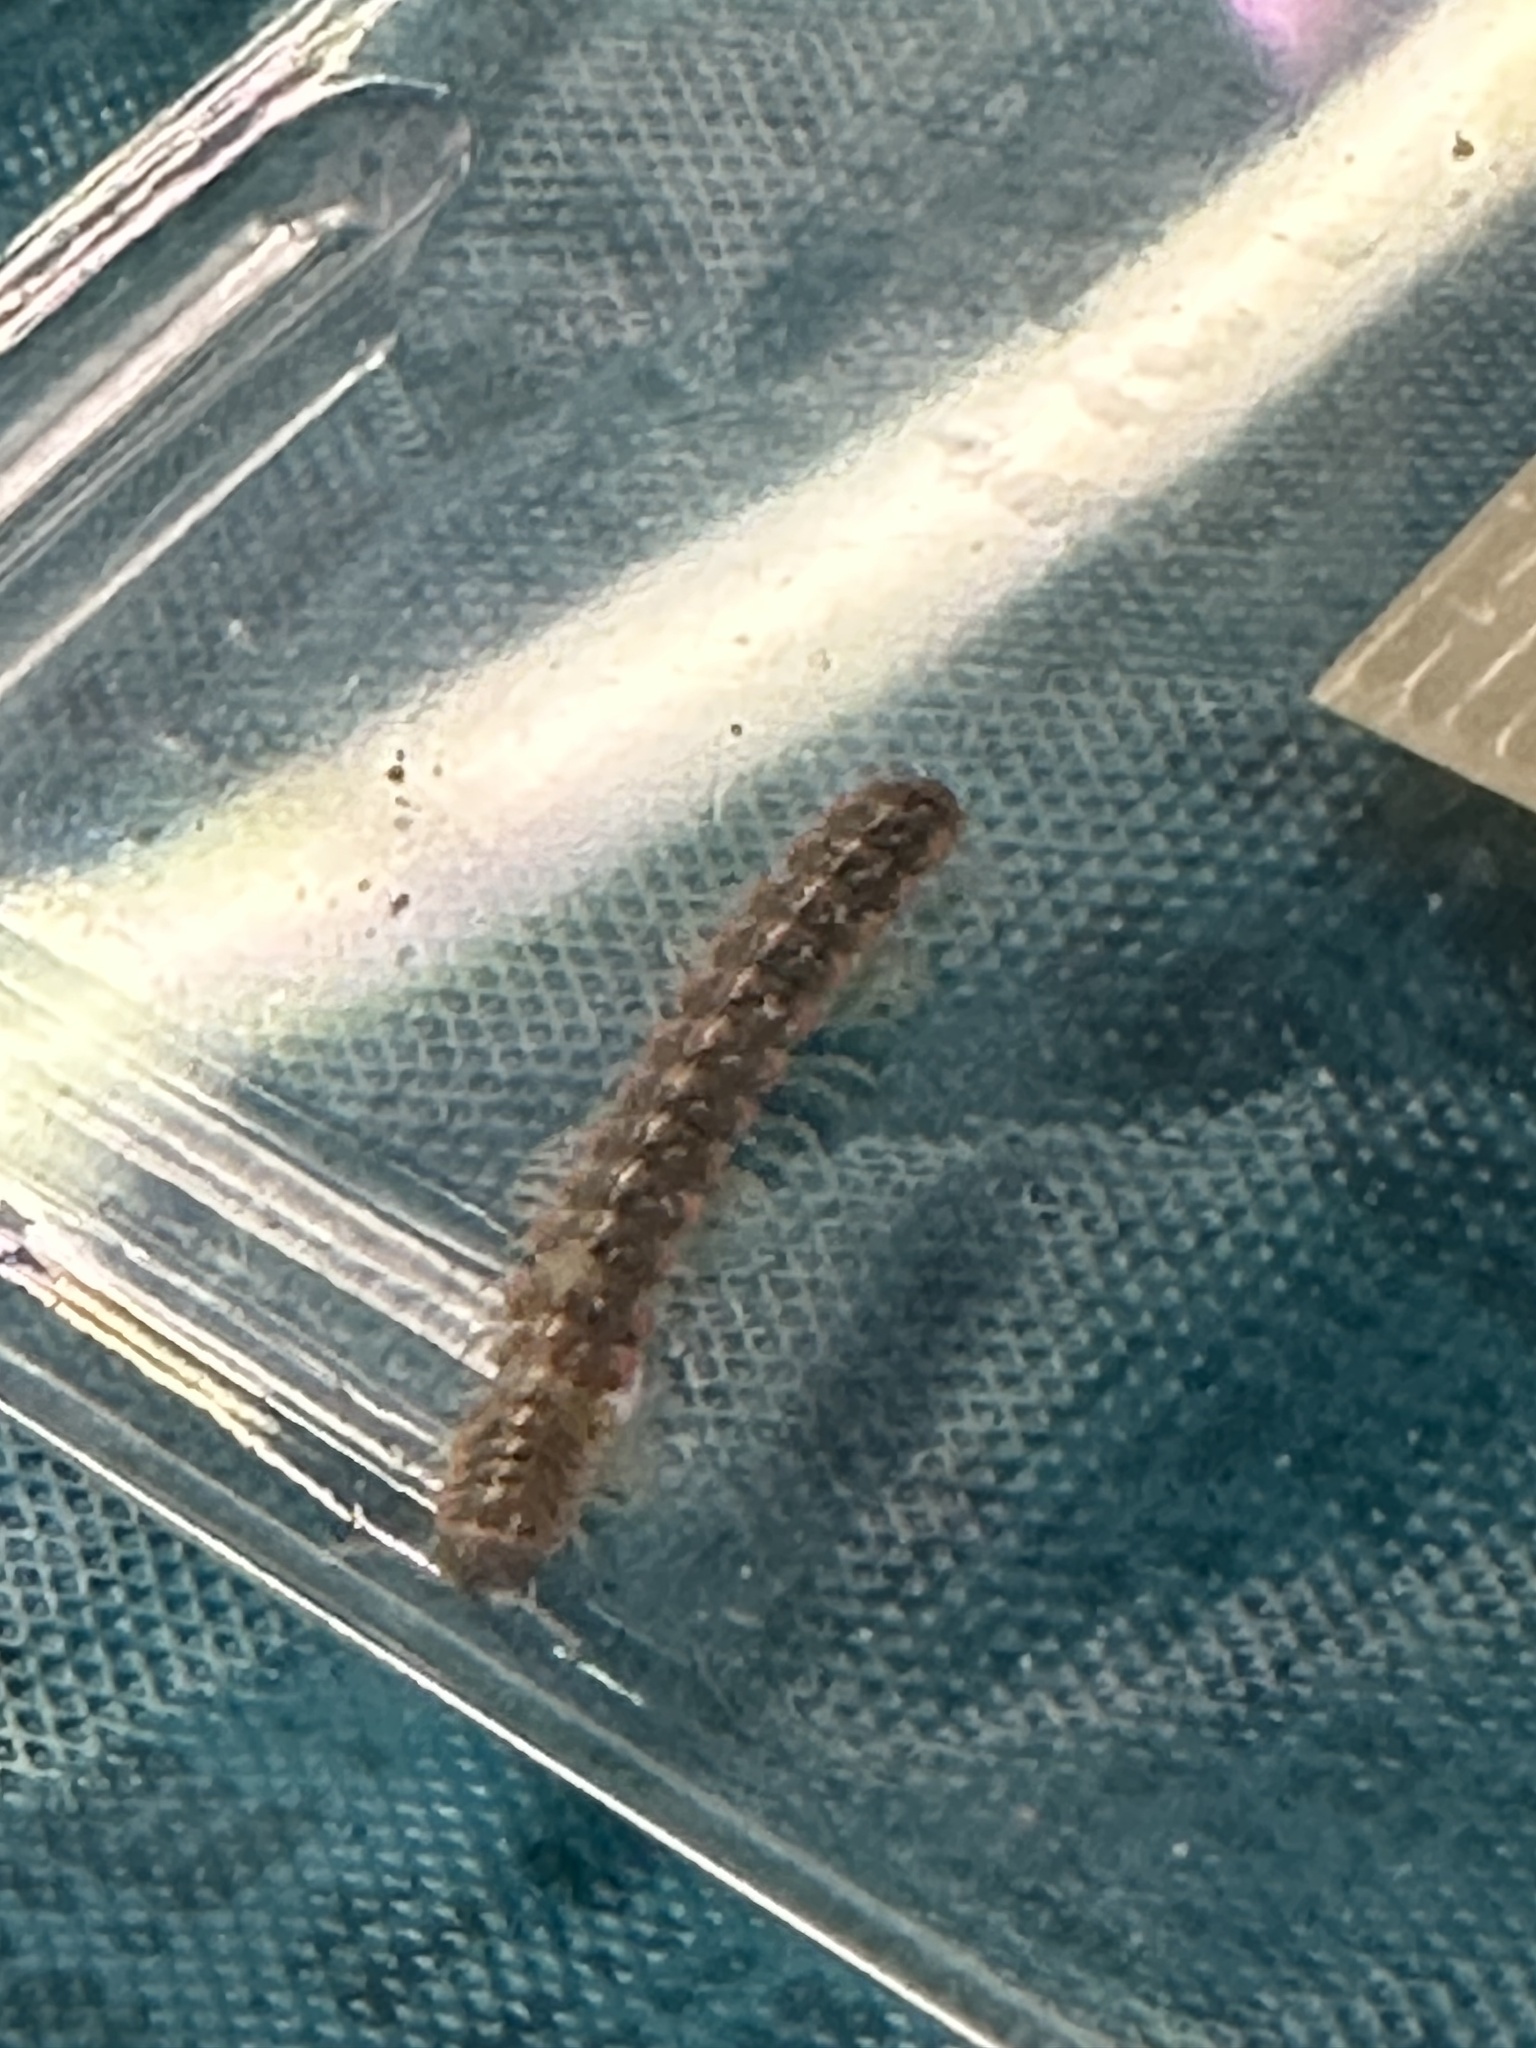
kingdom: Animalia
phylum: Arthropoda
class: Diplopoda
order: Polydesmida
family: Paradoxosomatidae
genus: Oxidus
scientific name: Oxidus gracilis
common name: Greenhouse millipede
